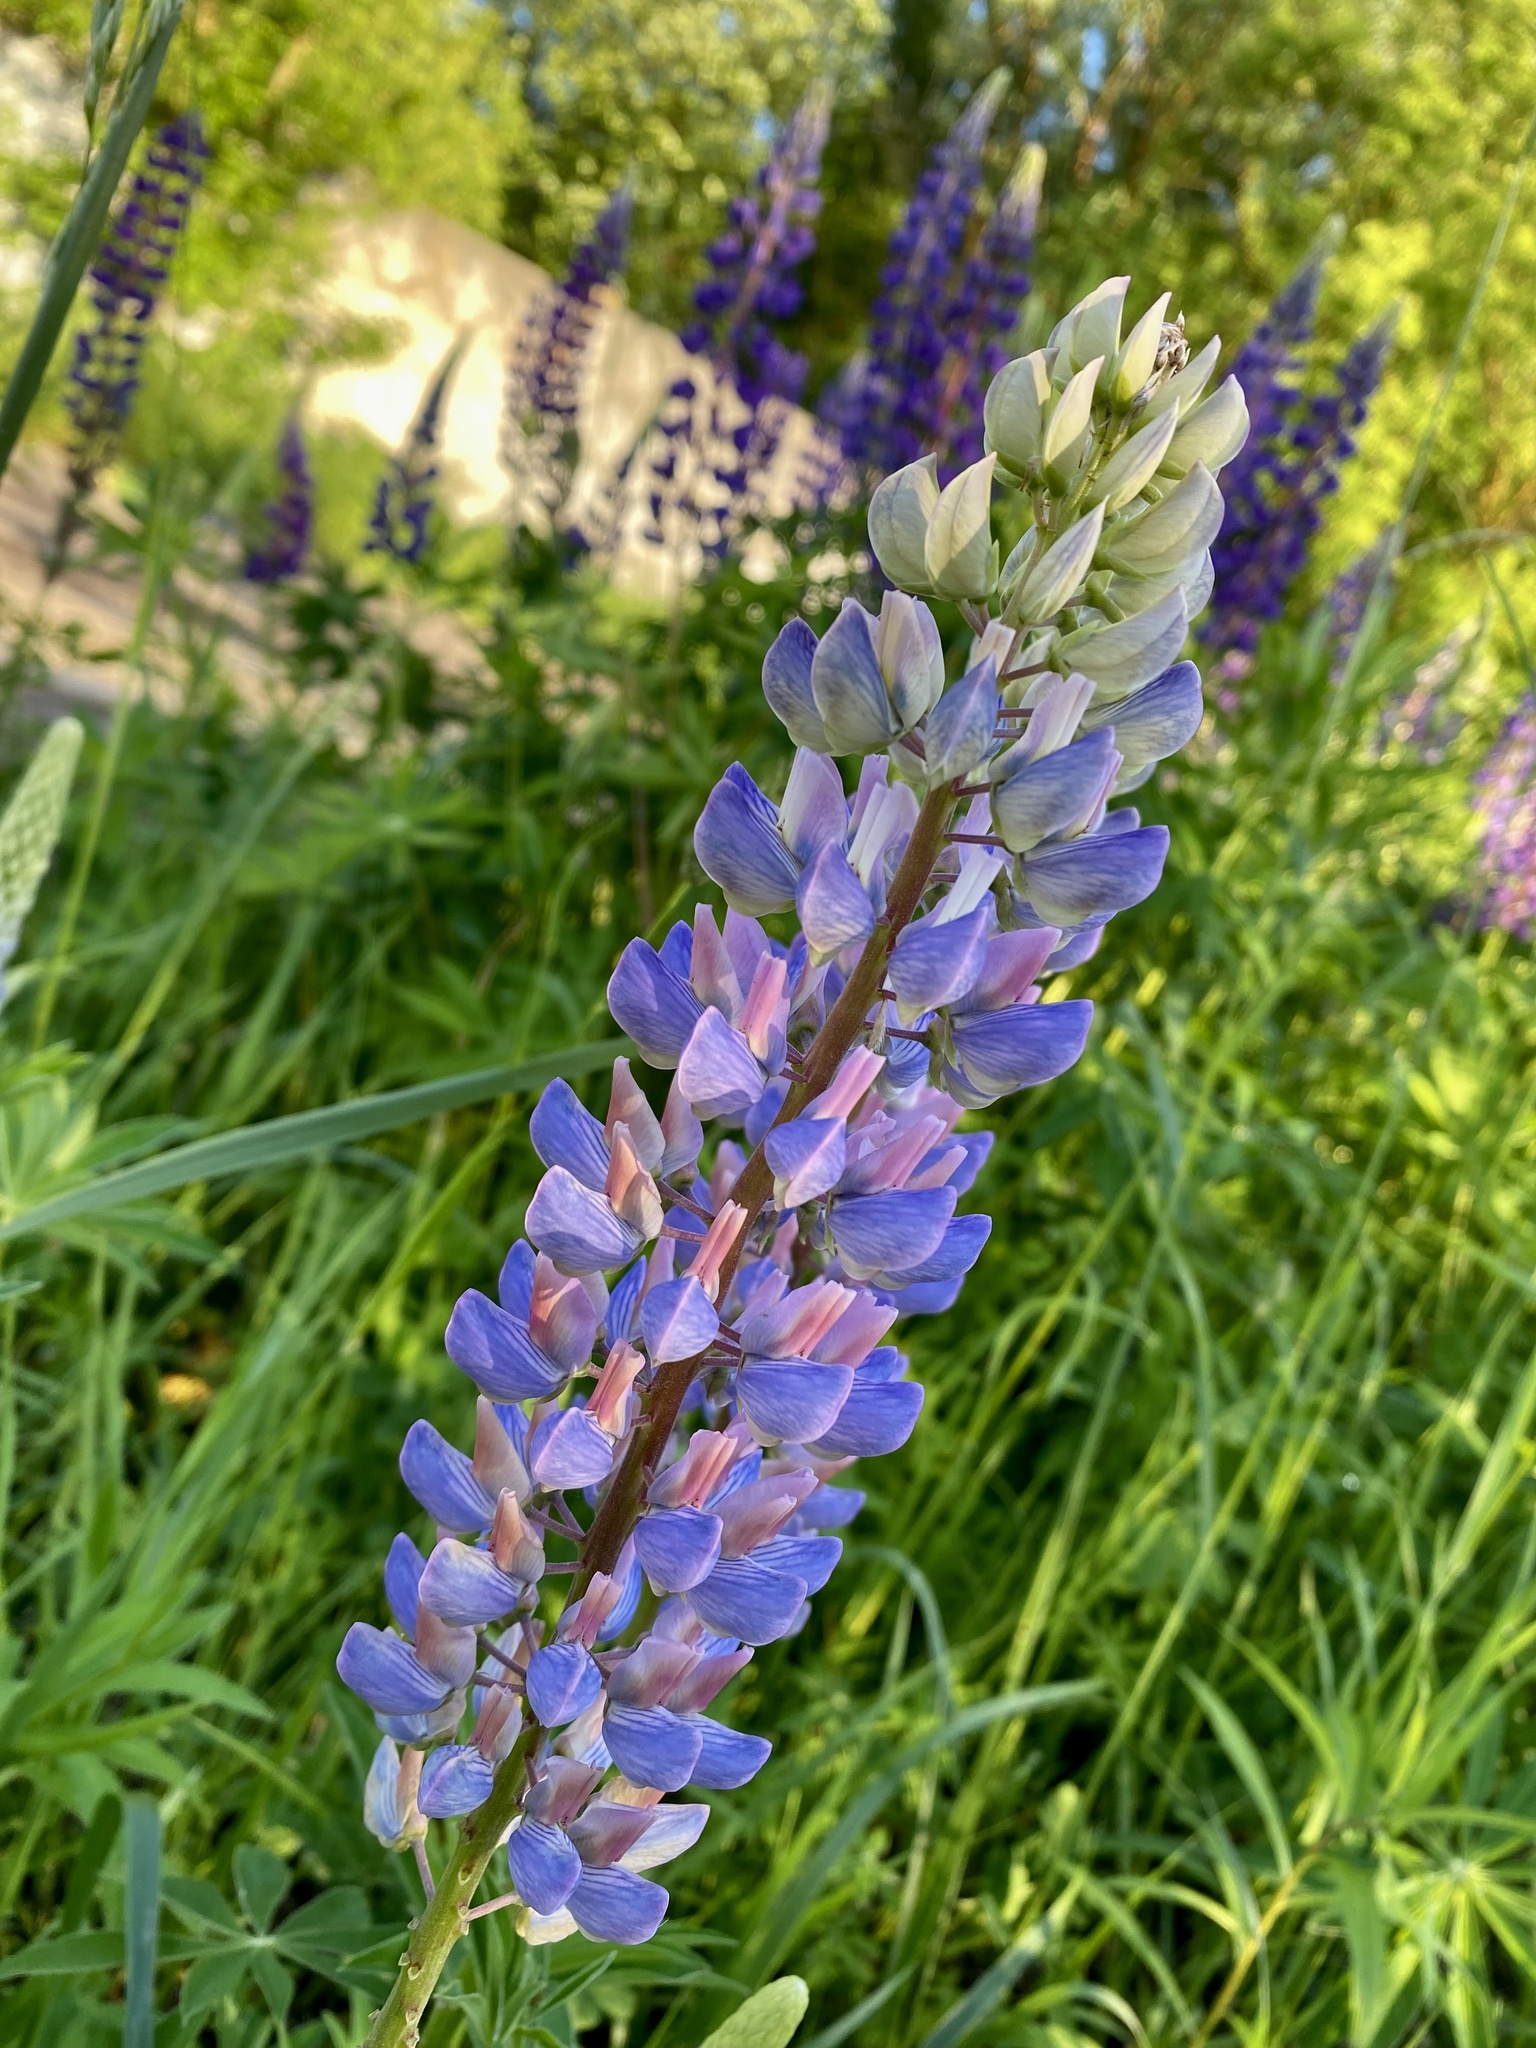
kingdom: Plantae
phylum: Tracheophyta
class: Magnoliopsida
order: Fabales
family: Fabaceae
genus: Lupinus
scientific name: Lupinus polyphyllus
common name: Garden lupin
